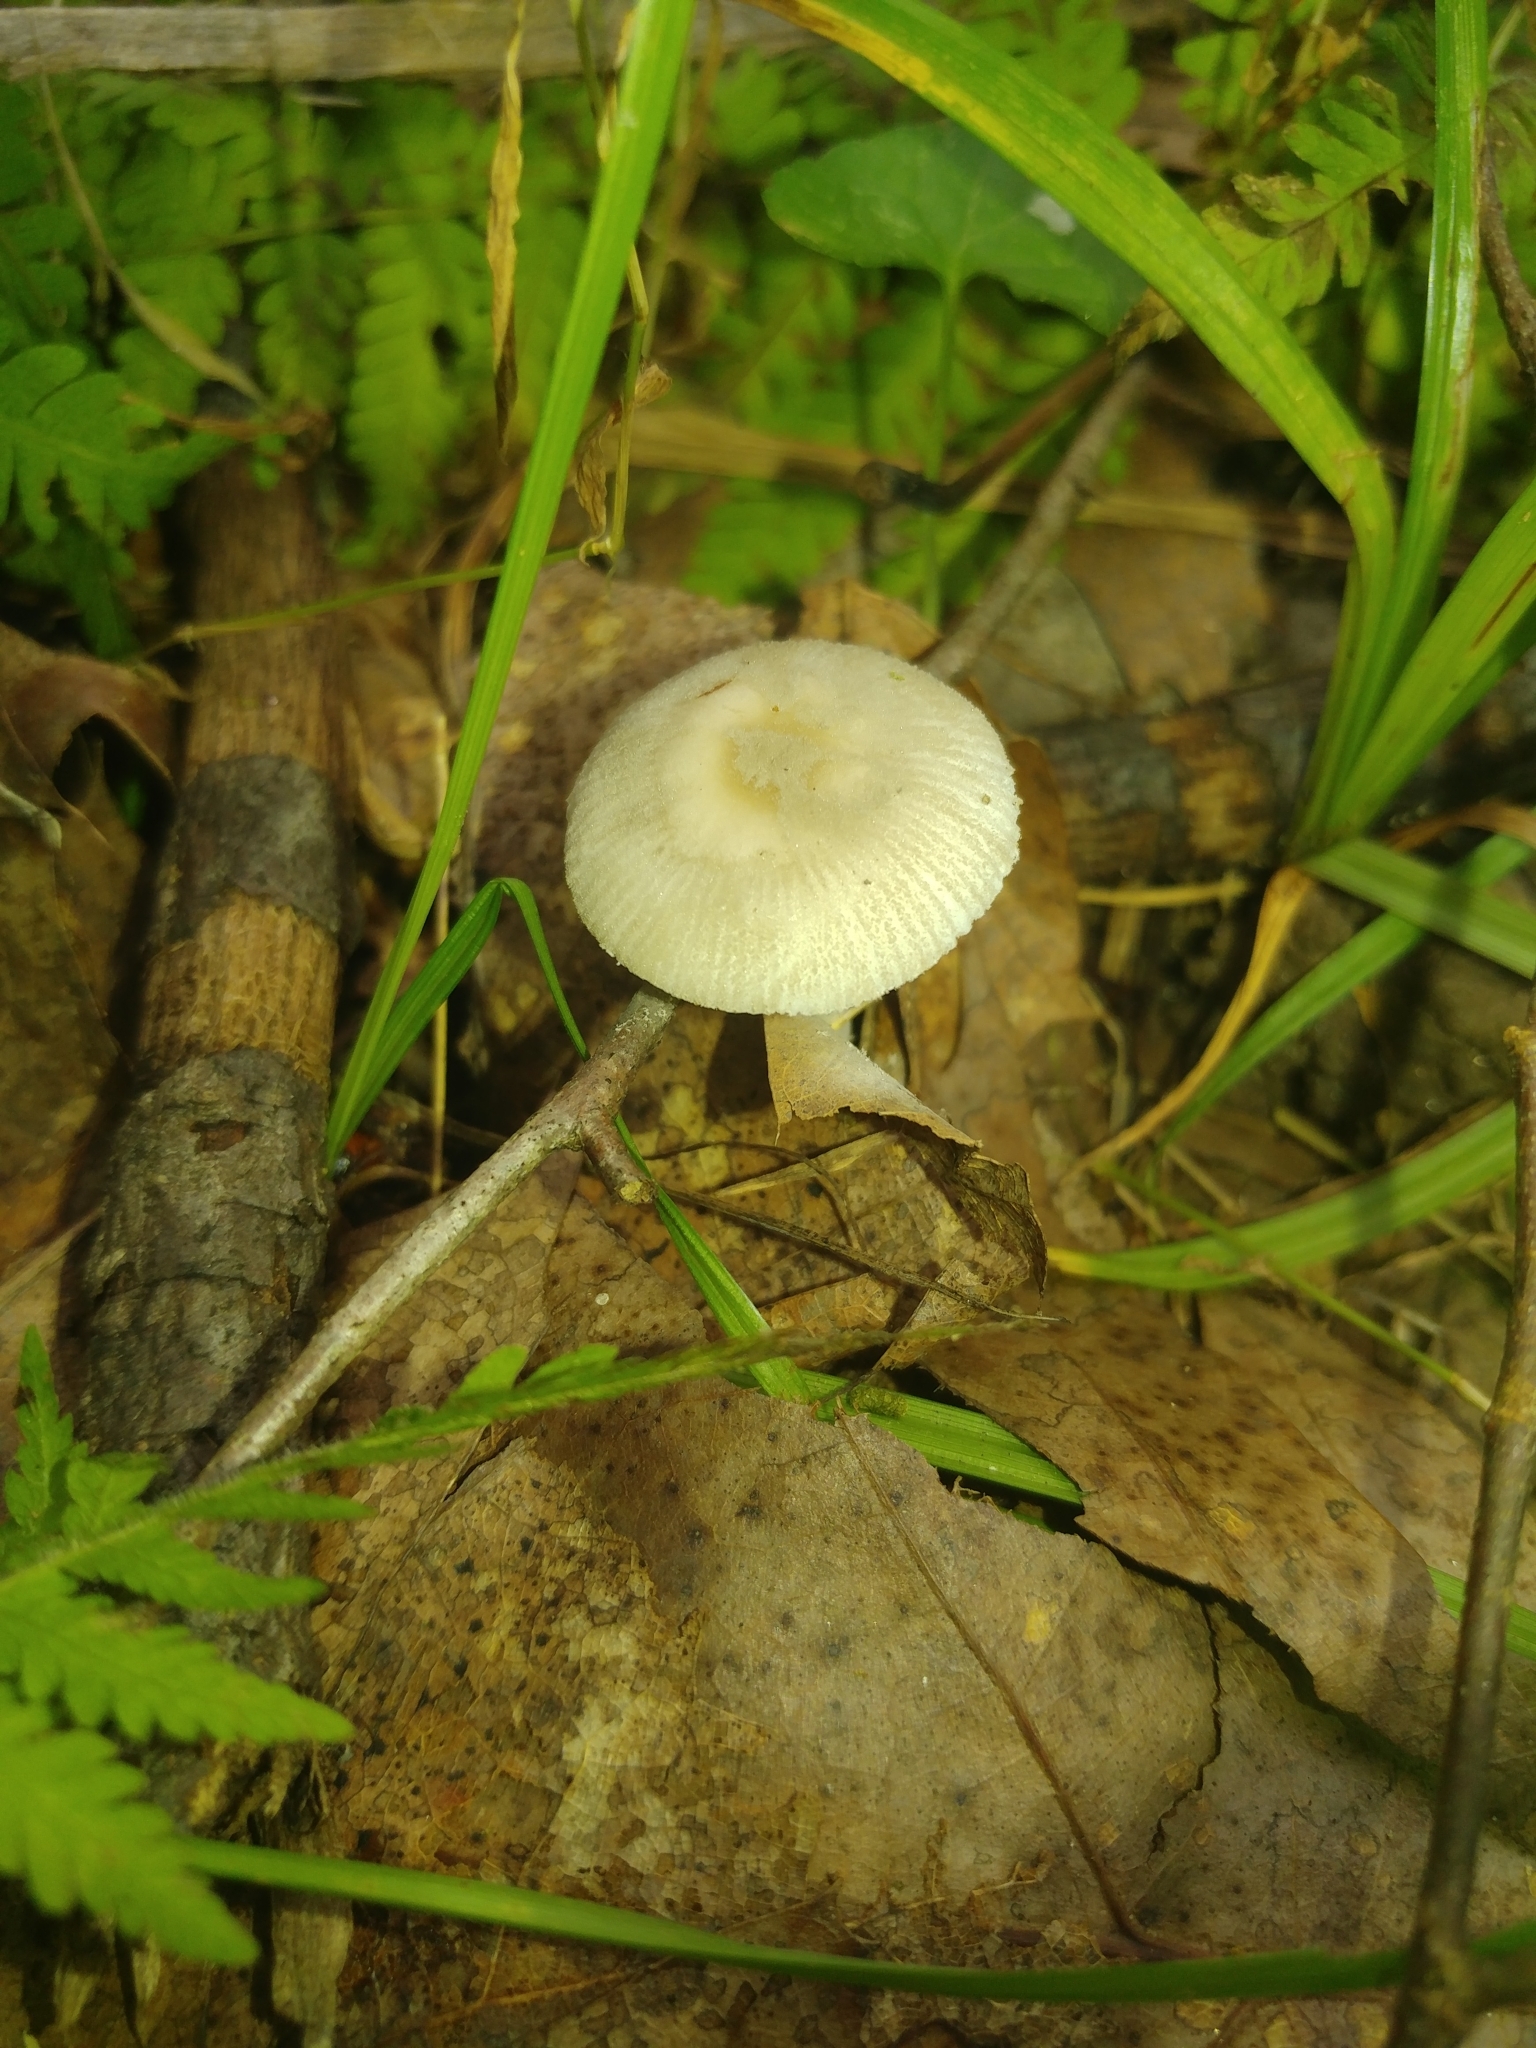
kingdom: Fungi
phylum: Basidiomycota
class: Agaricomycetes
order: Agaricales
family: Amanitaceae
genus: Amanita
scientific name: Amanita farinosa
